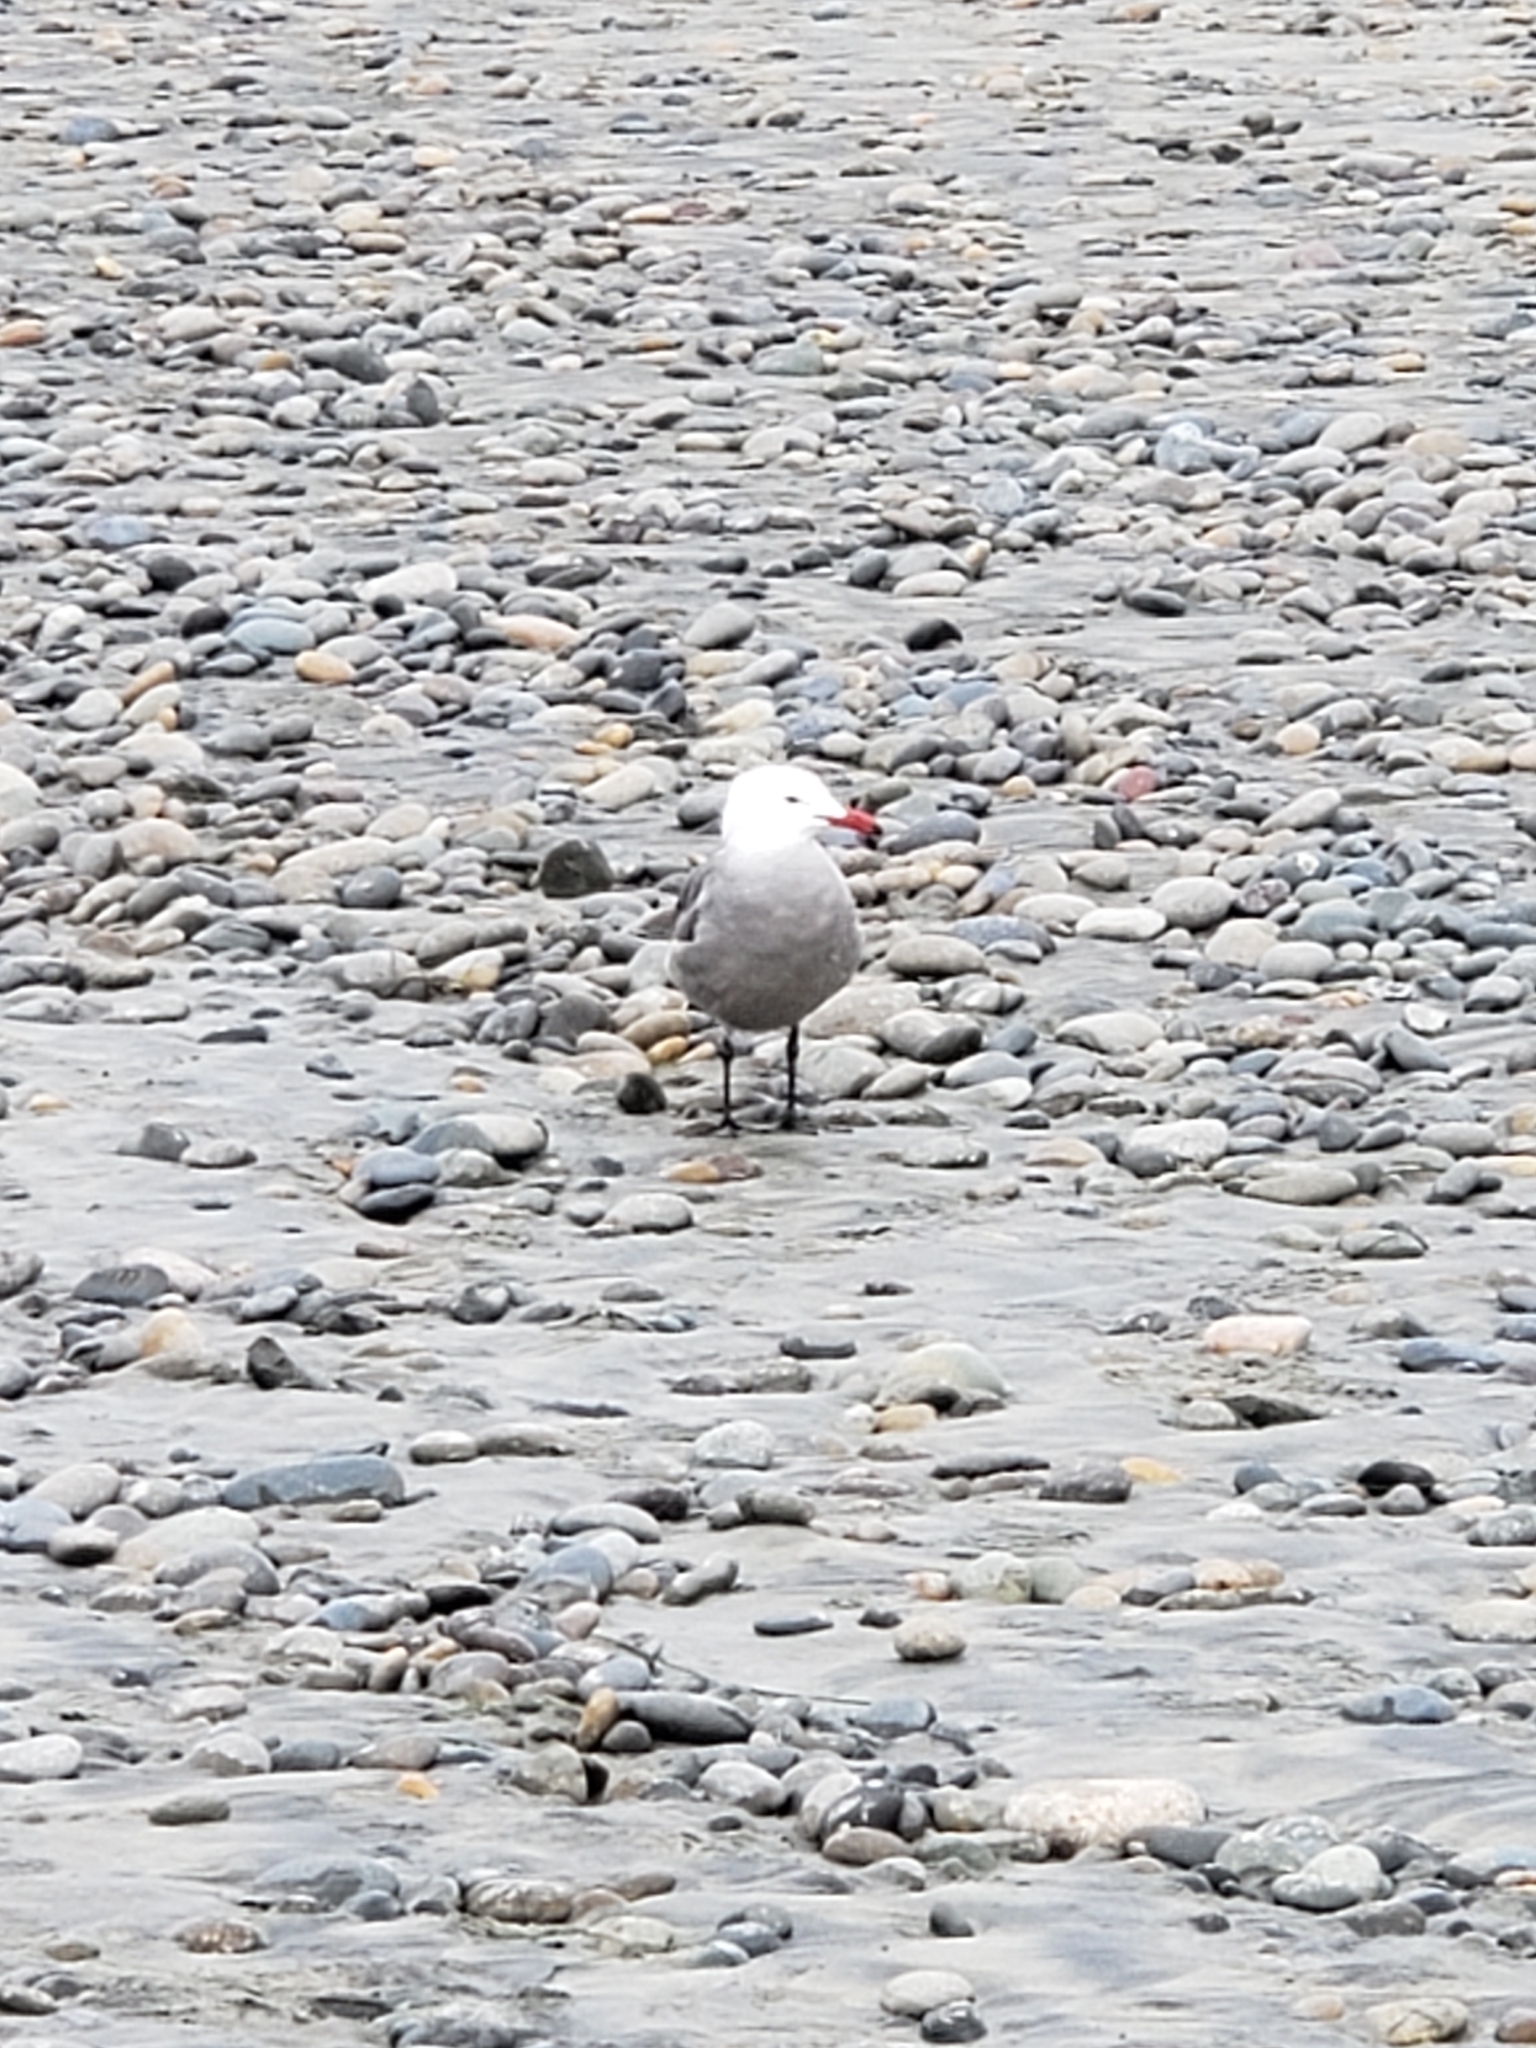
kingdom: Animalia
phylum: Chordata
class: Aves
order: Charadriiformes
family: Laridae
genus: Larus
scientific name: Larus heermanni
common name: Heermann's gull
